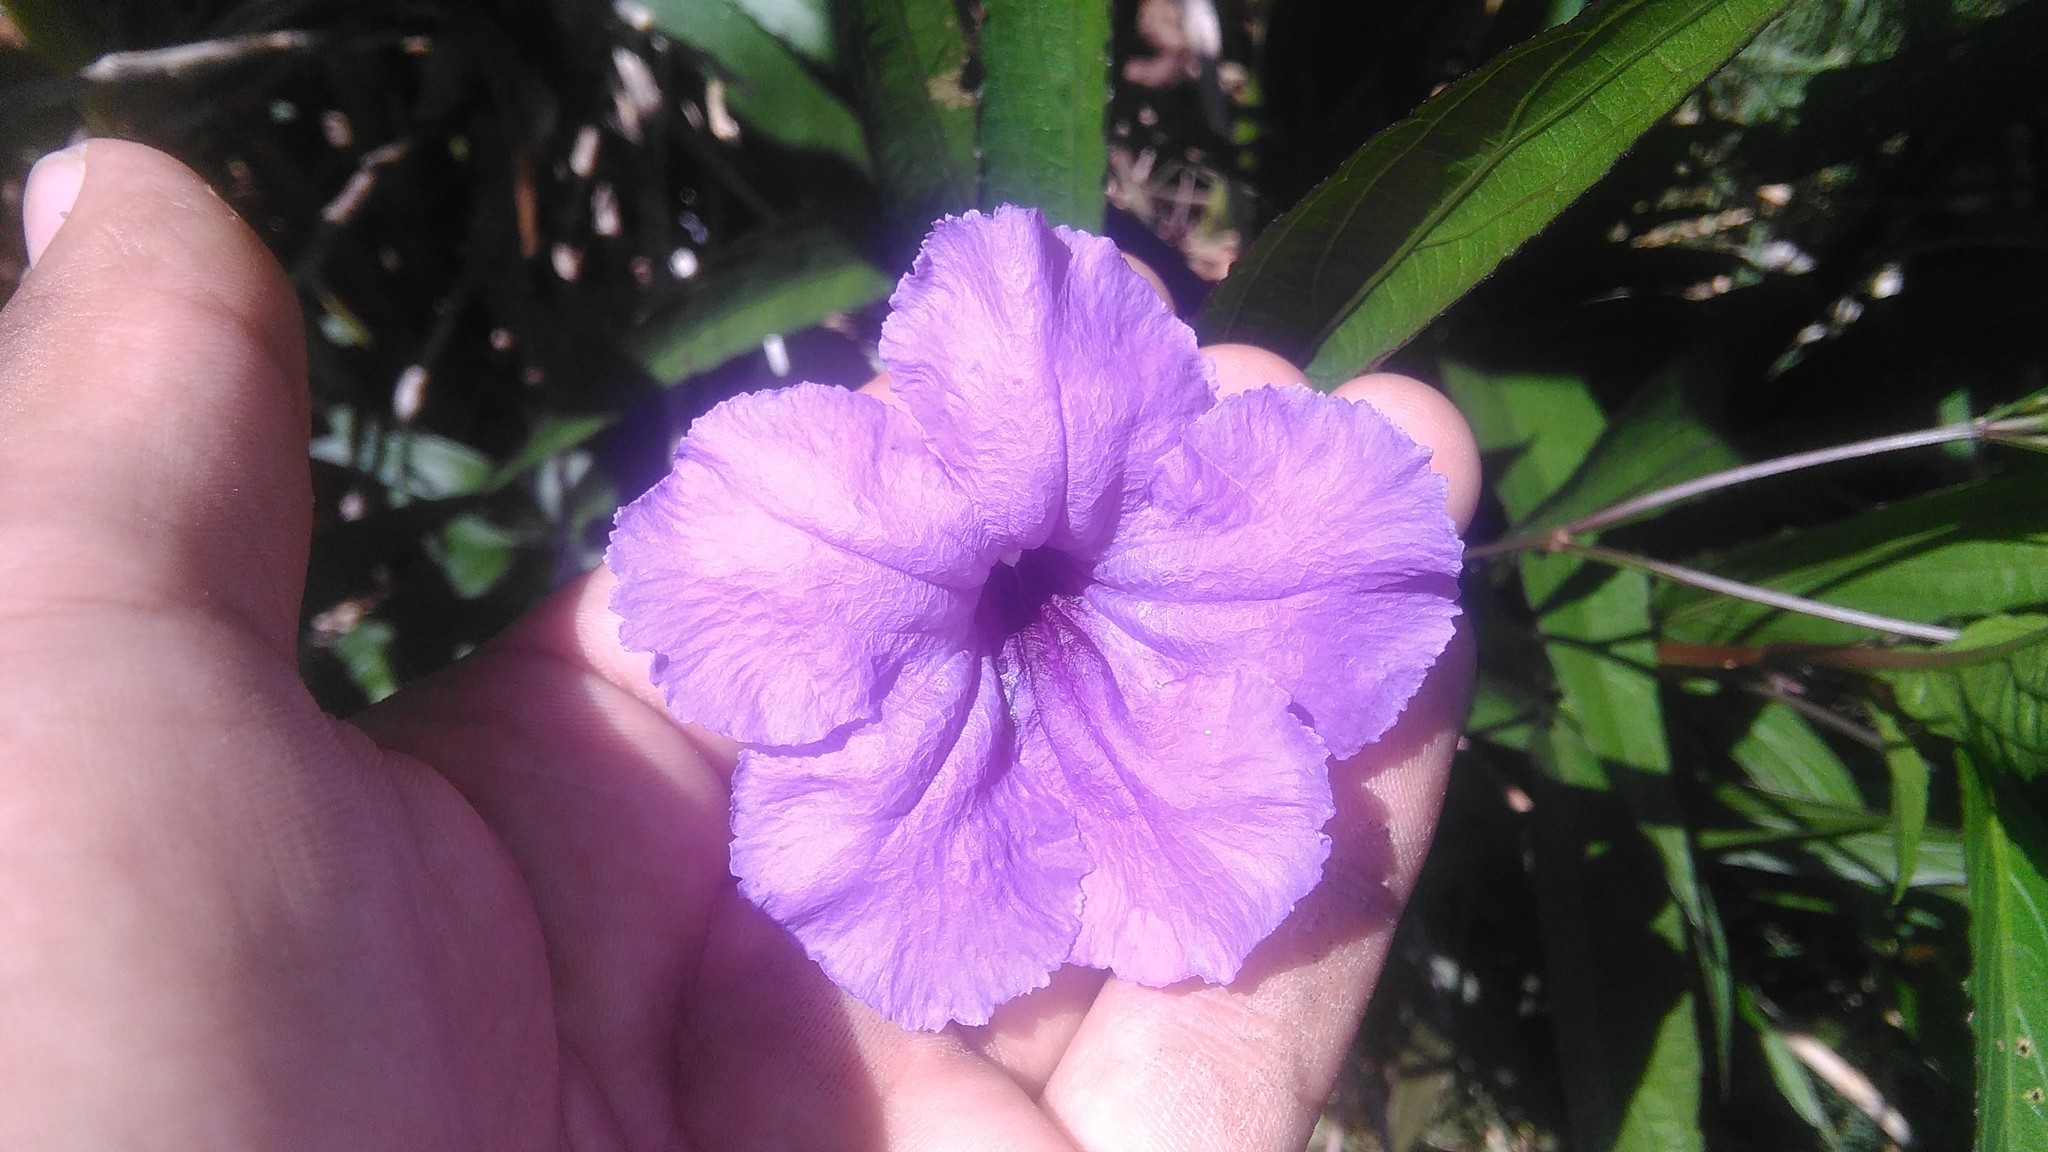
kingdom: Plantae
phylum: Tracheophyta
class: Magnoliopsida
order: Lamiales
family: Acanthaceae
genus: Ruellia
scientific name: Ruellia simplex
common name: Softseed wild petunia
